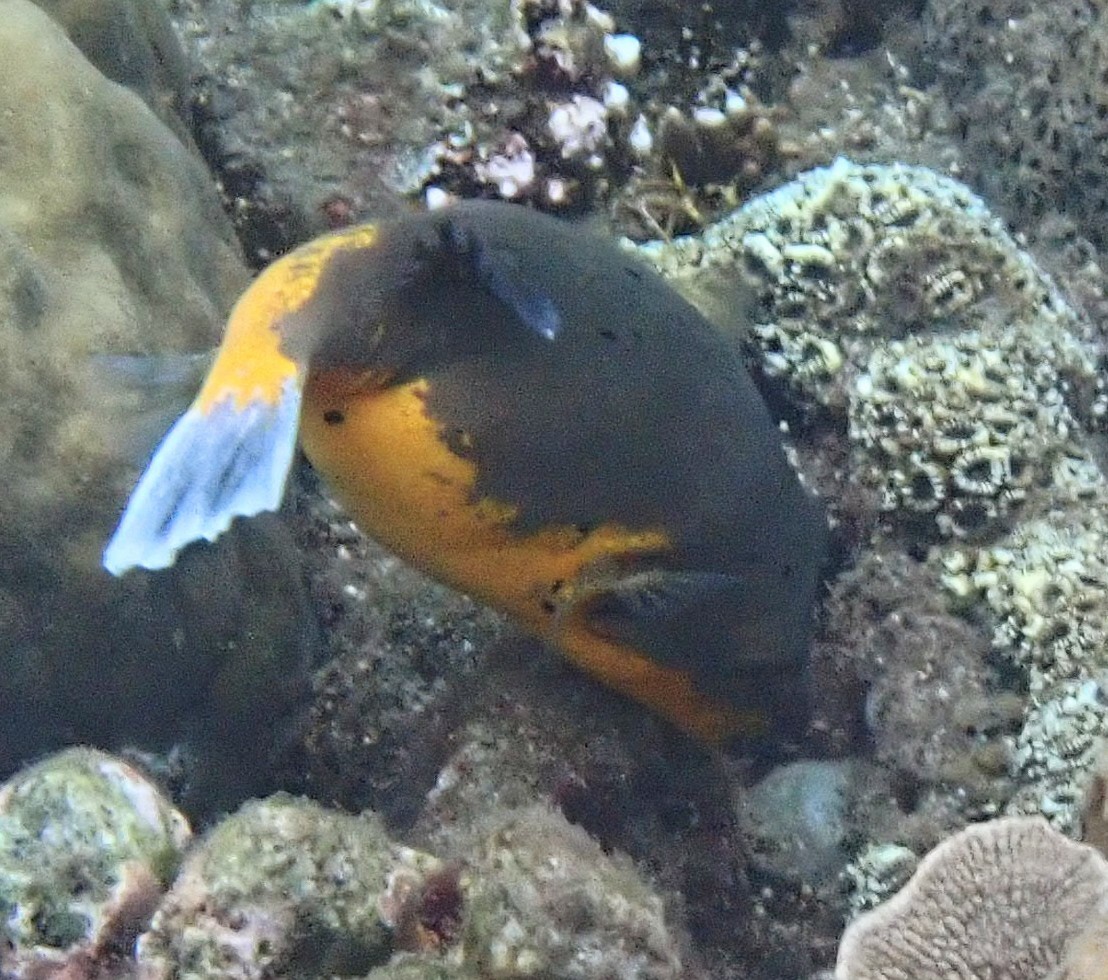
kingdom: Animalia
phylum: Chordata
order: Tetraodontiformes
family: Tetraodontidae
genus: Arothron
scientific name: Arothron nigropunctatus
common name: Black spotted blow fish
